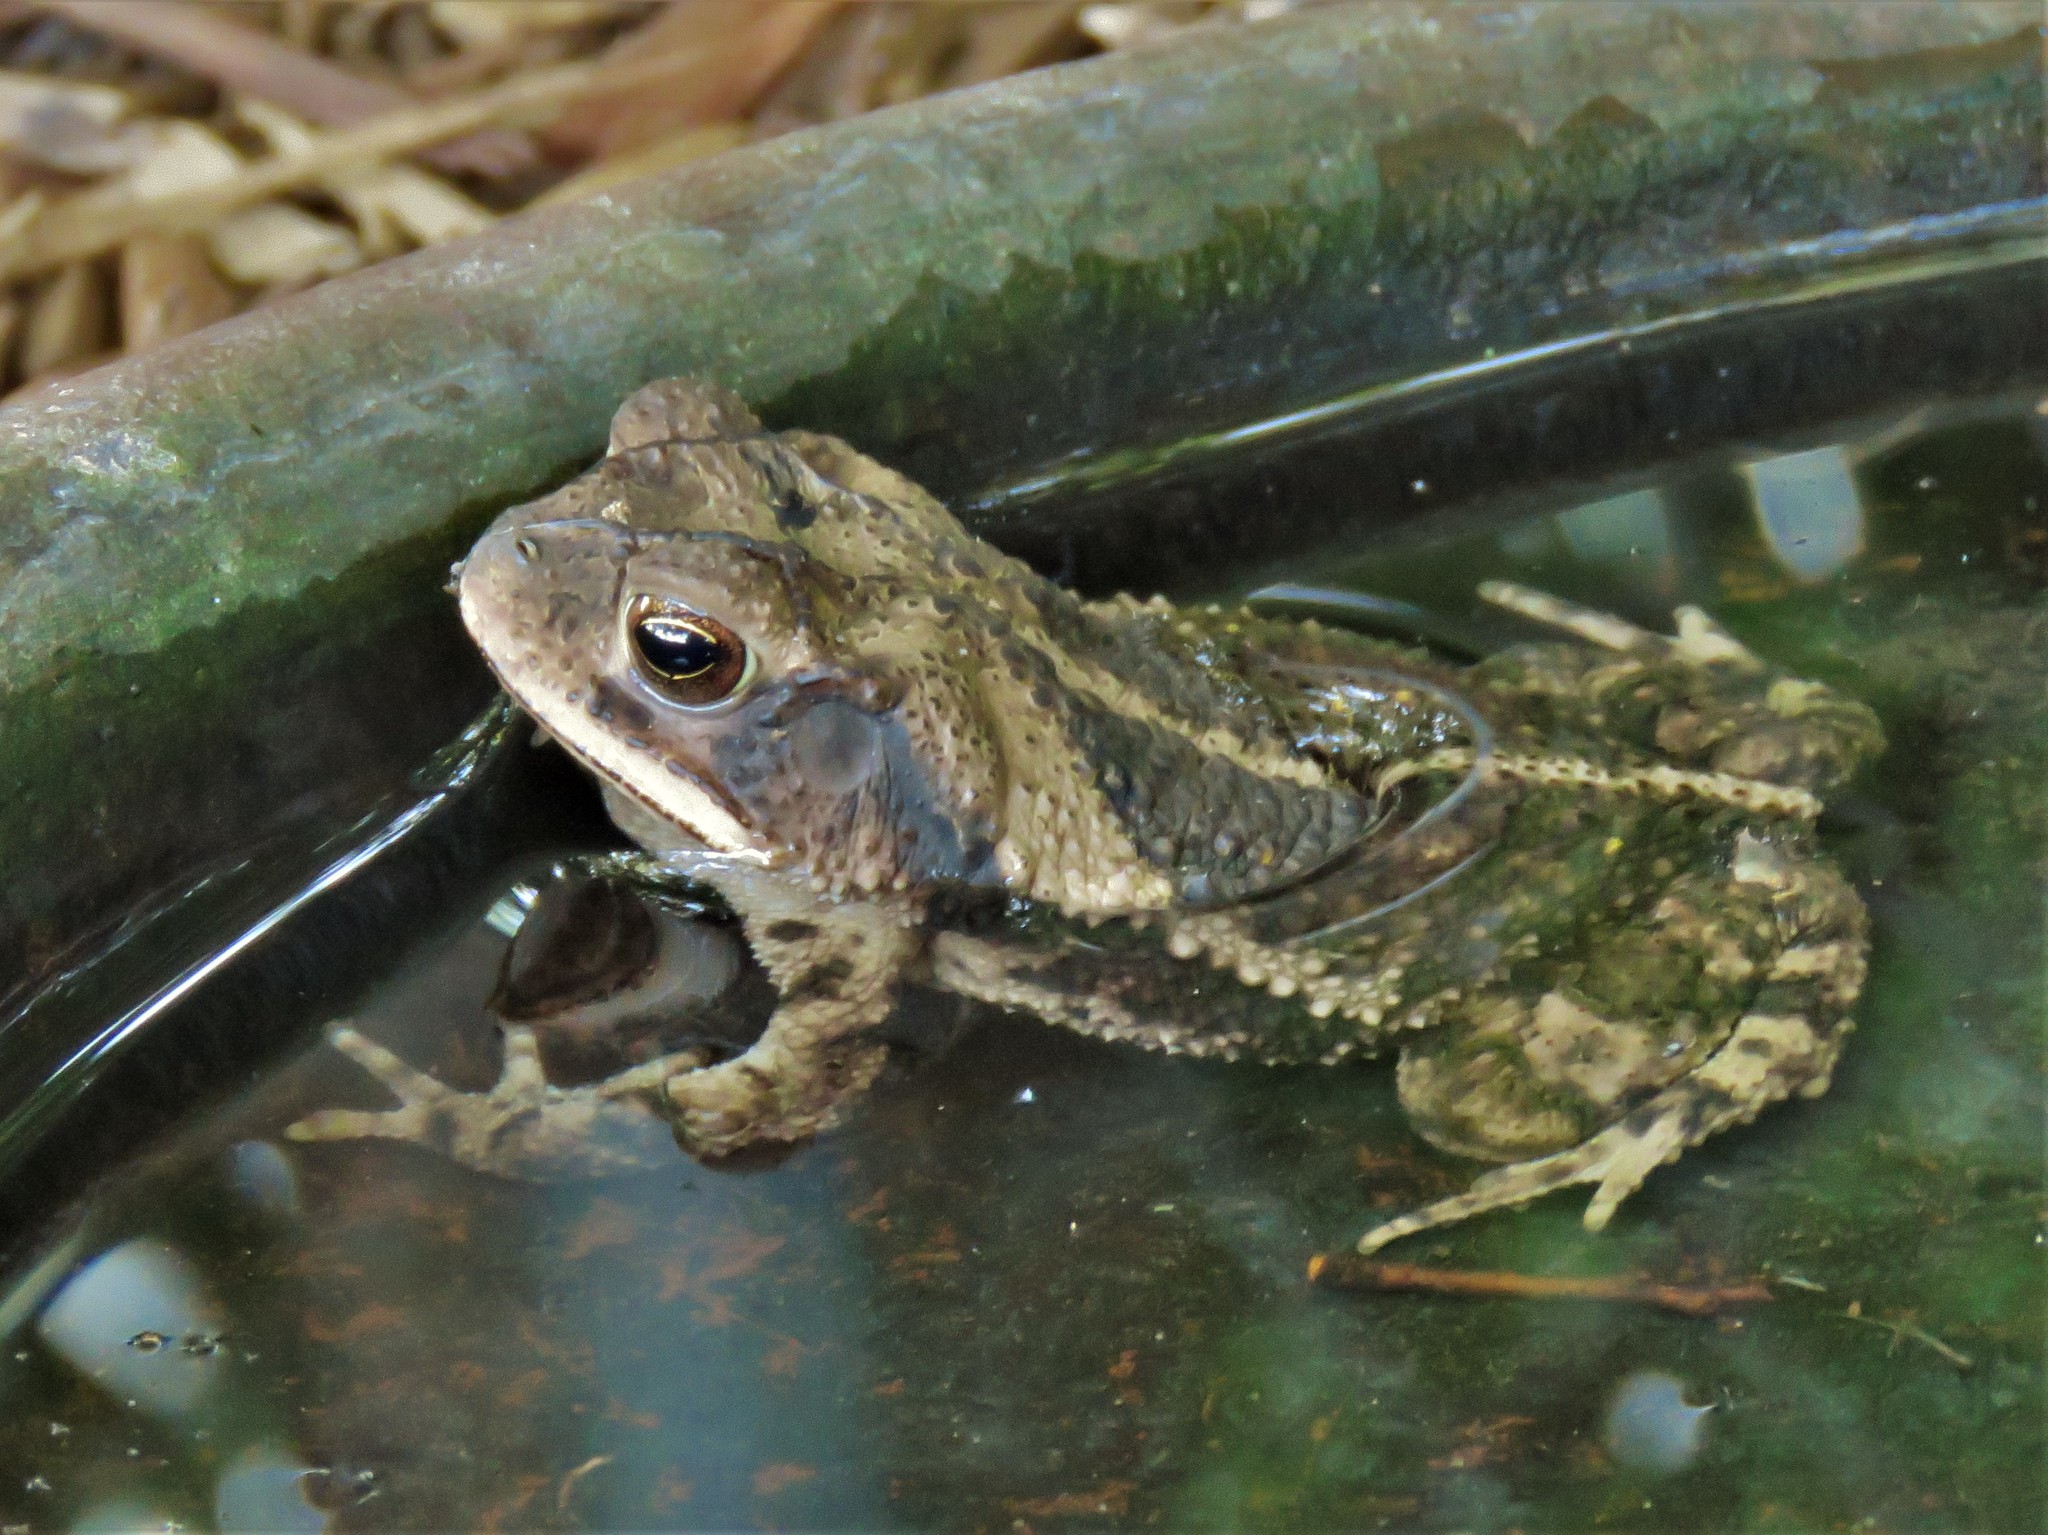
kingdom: Animalia
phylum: Chordata
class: Amphibia
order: Anura
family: Bufonidae
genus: Incilius
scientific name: Incilius nebulifer
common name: Gulf coast toad
